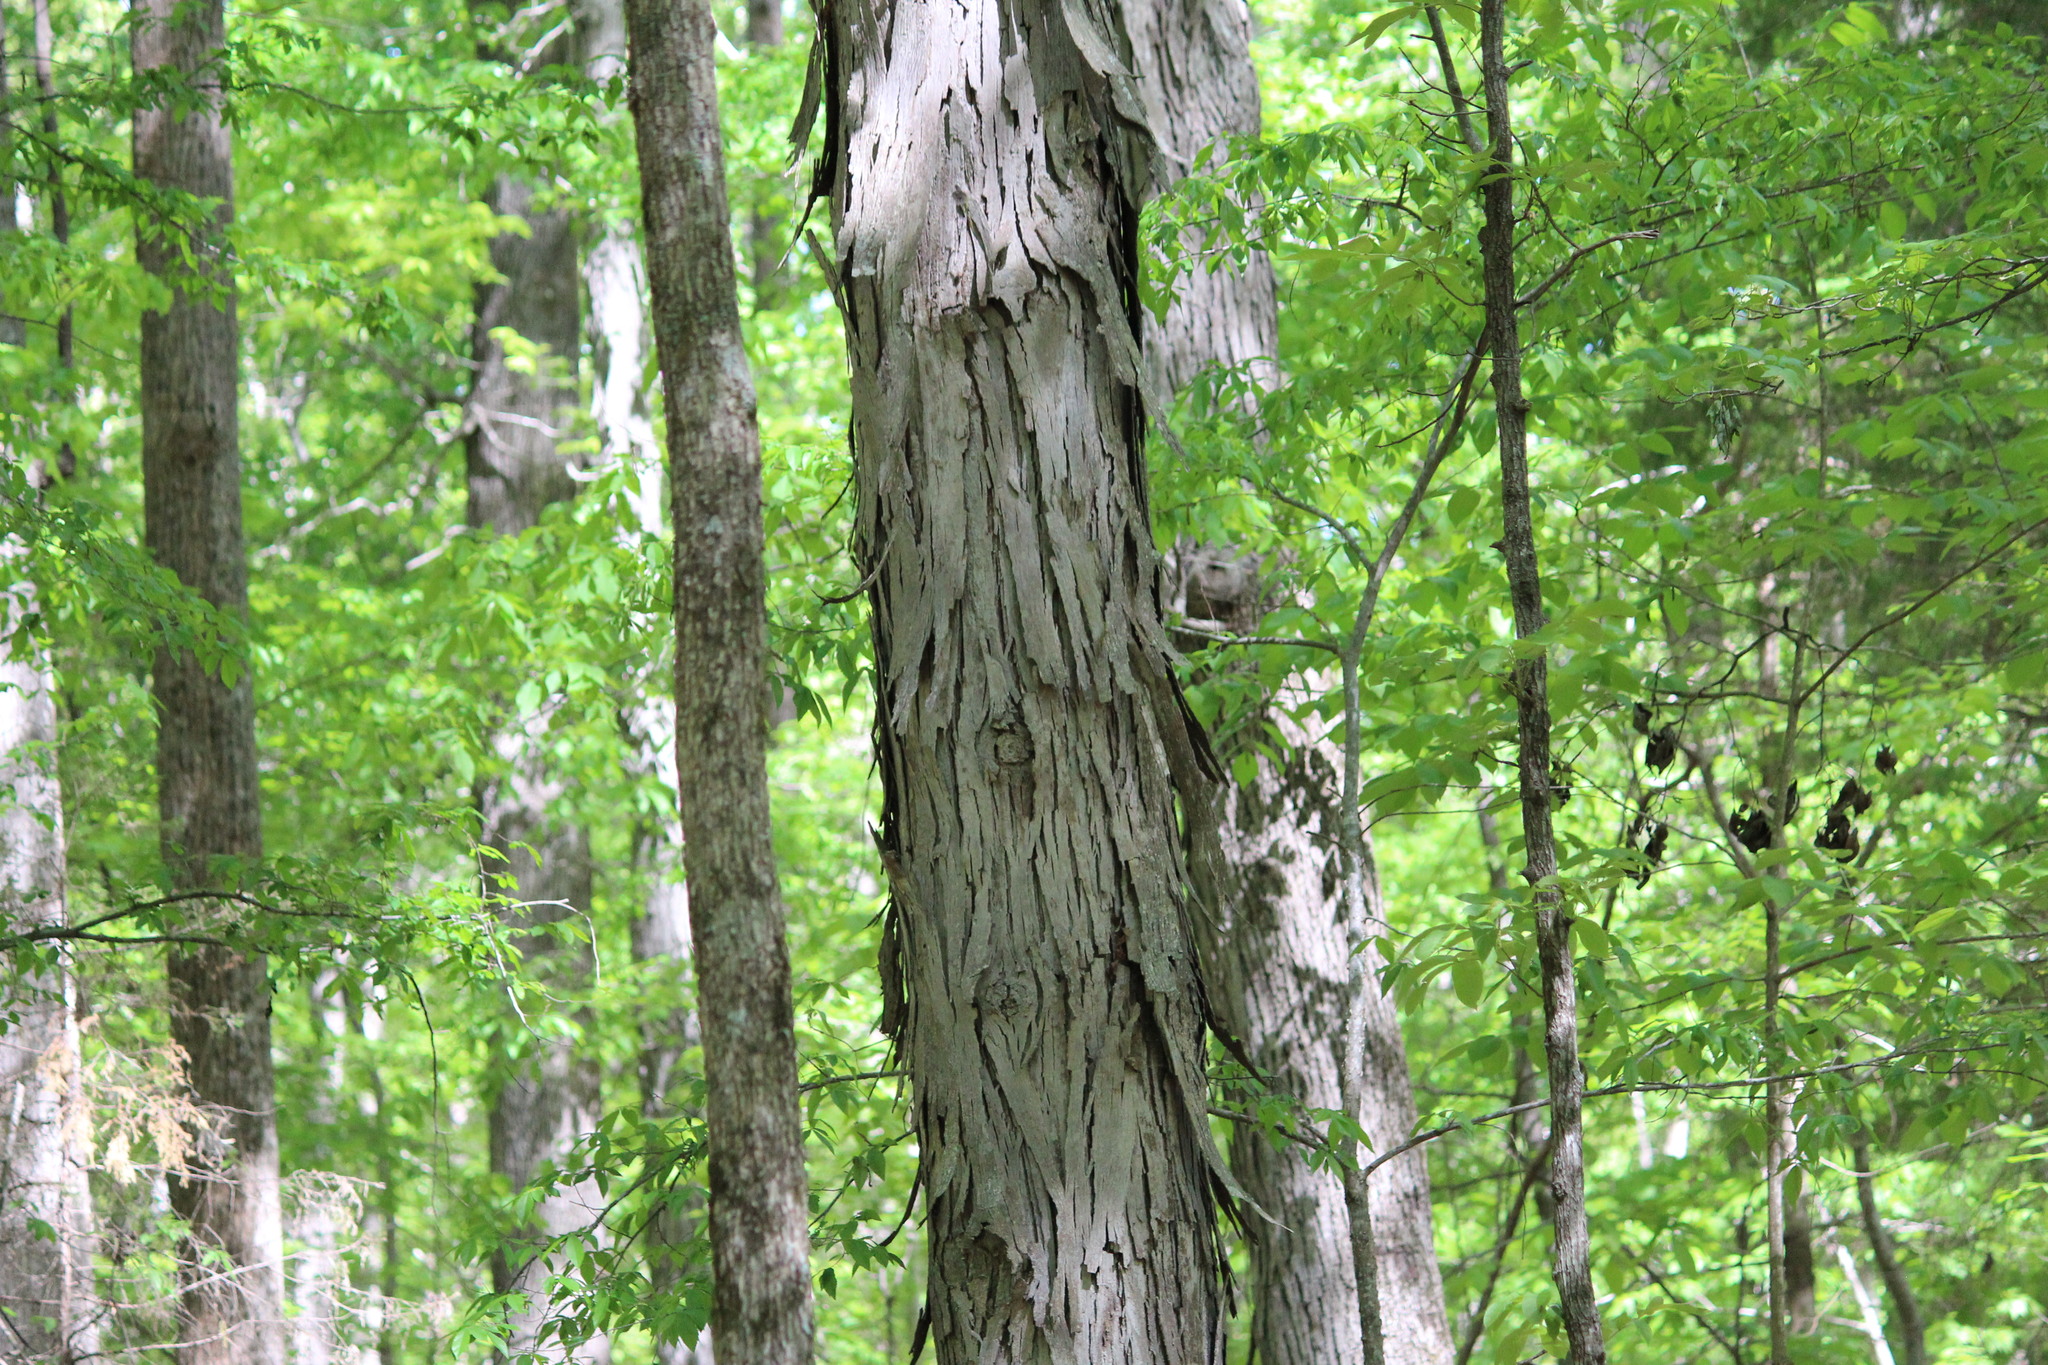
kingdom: Plantae
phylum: Tracheophyta
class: Magnoliopsida
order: Fagales
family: Juglandaceae
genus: Carya
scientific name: Carya carolinae-septentrionalis
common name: Carolina hickory
